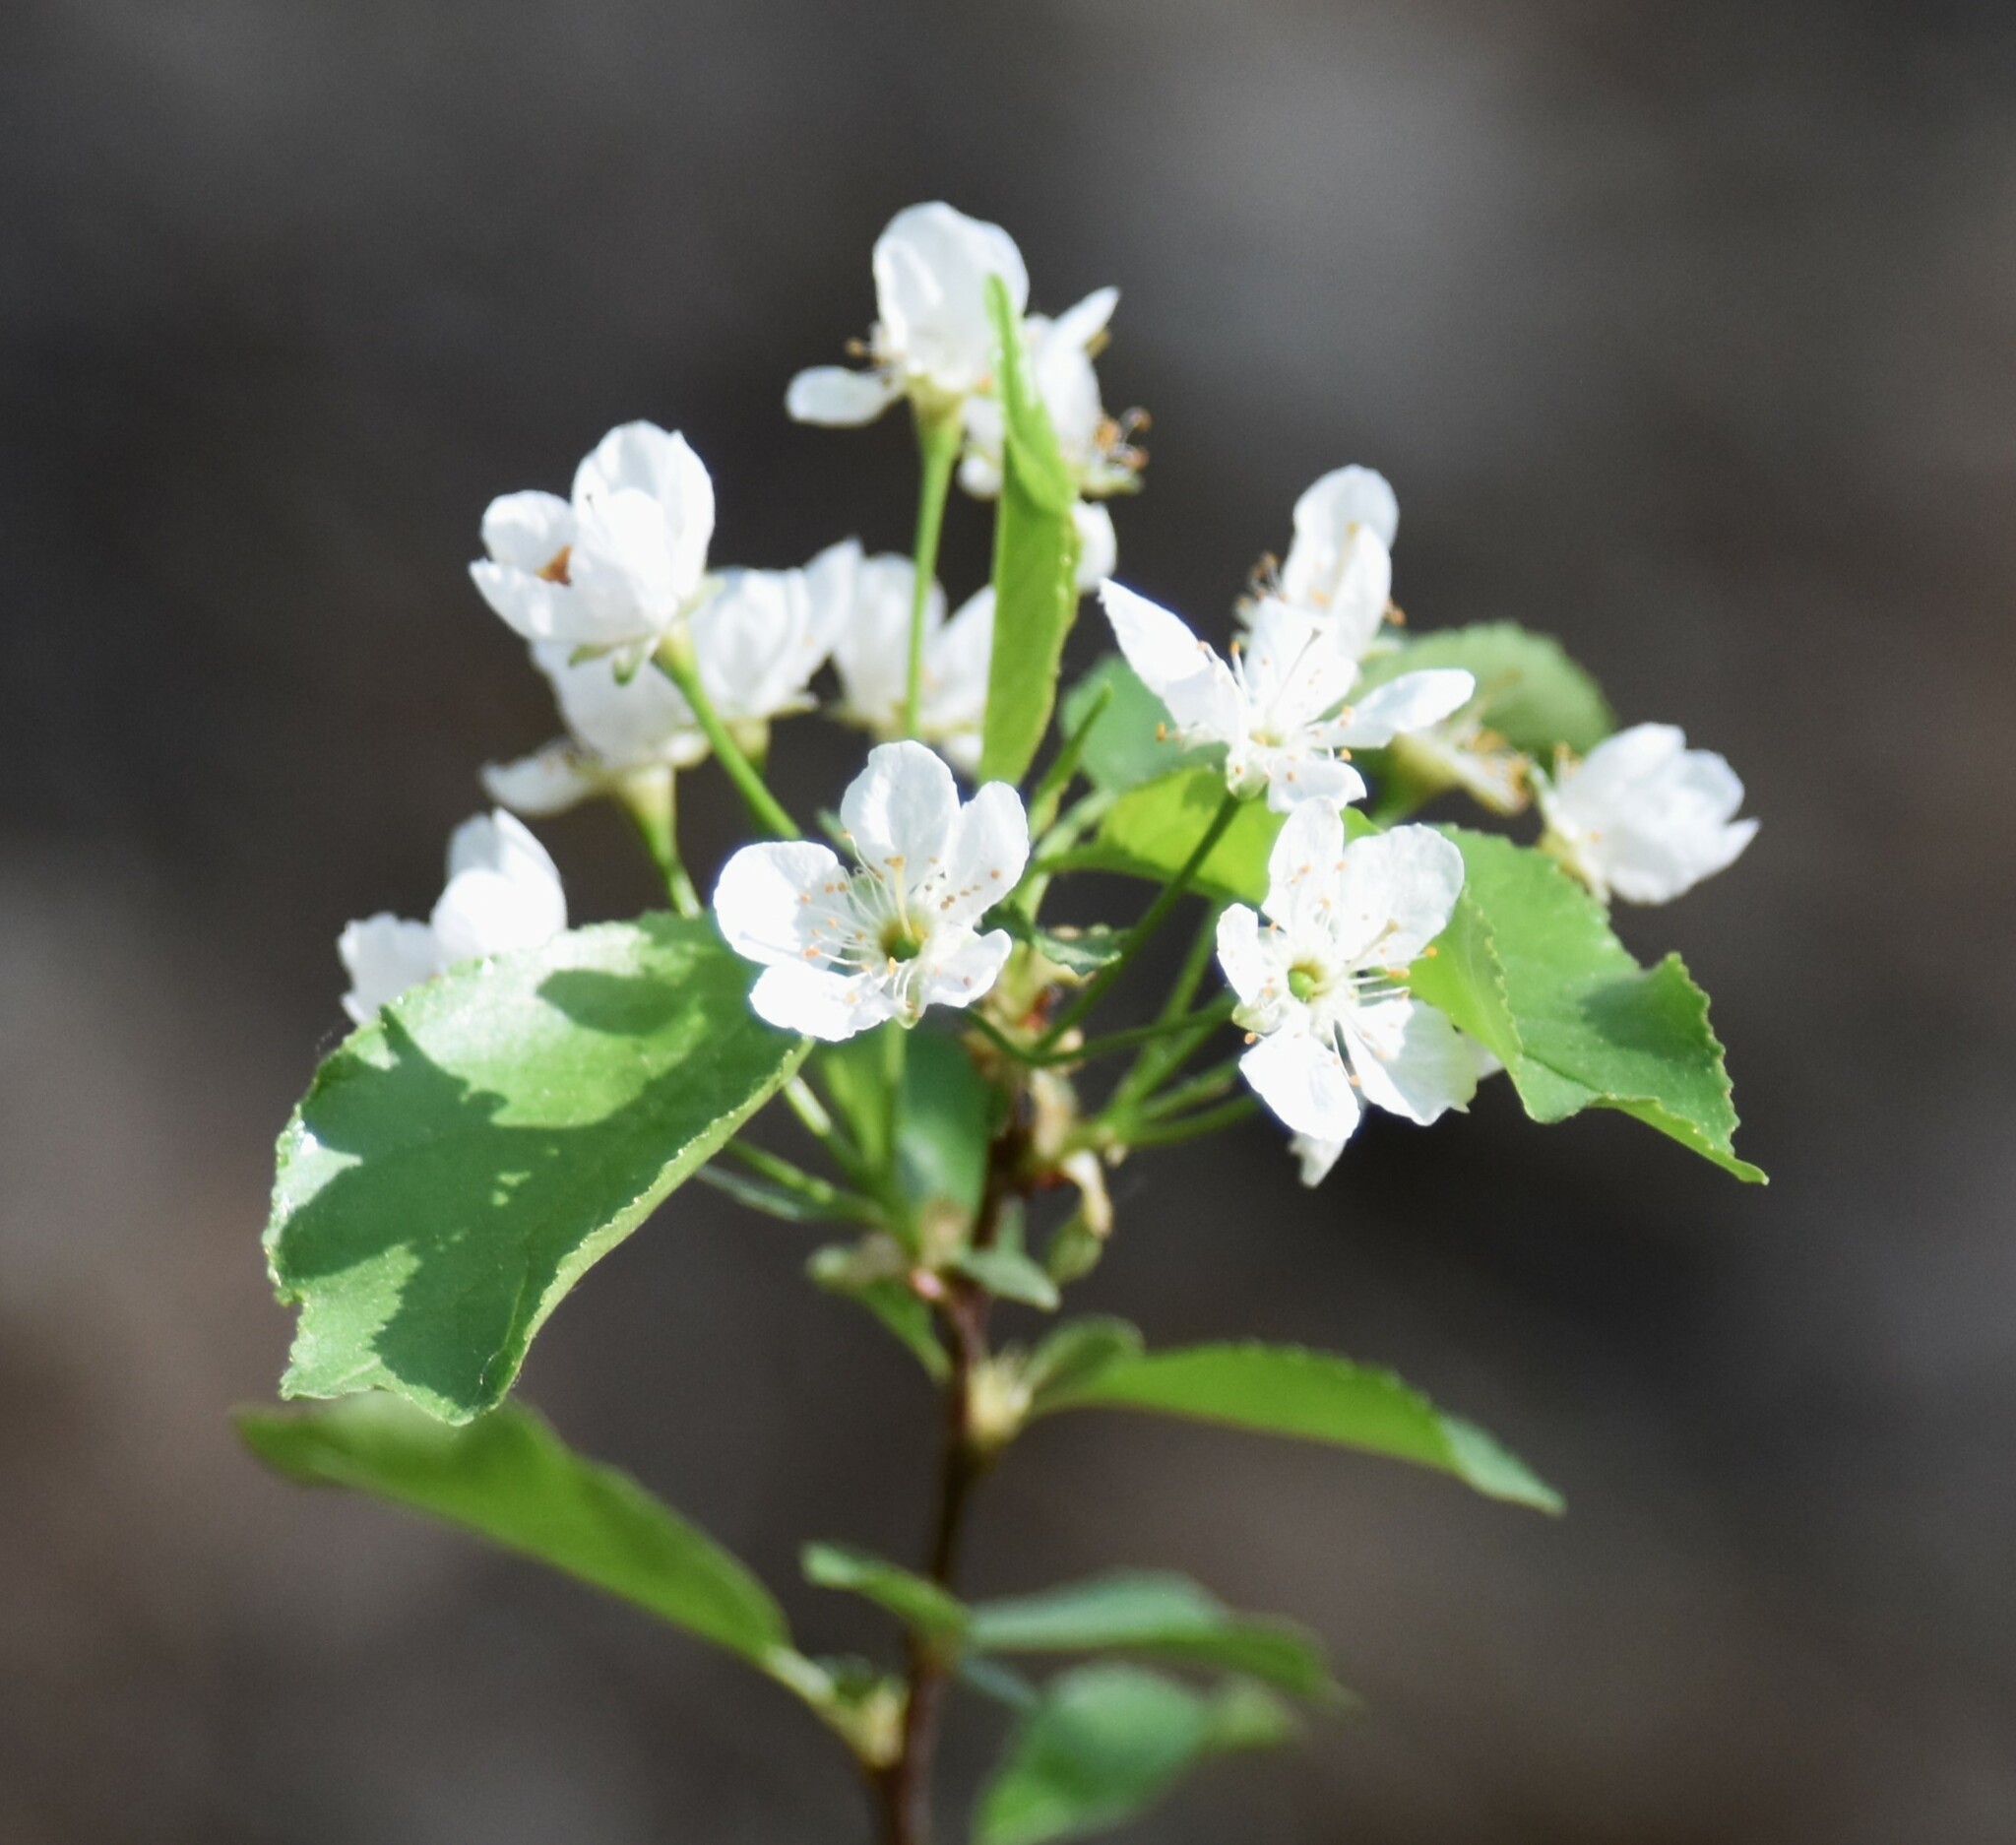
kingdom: Plantae
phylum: Tracheophyta
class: Magnoliopsida
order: Rosales
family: Rosaceae
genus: Prunus
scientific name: Prunus pensylvanica
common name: Pin cherry
